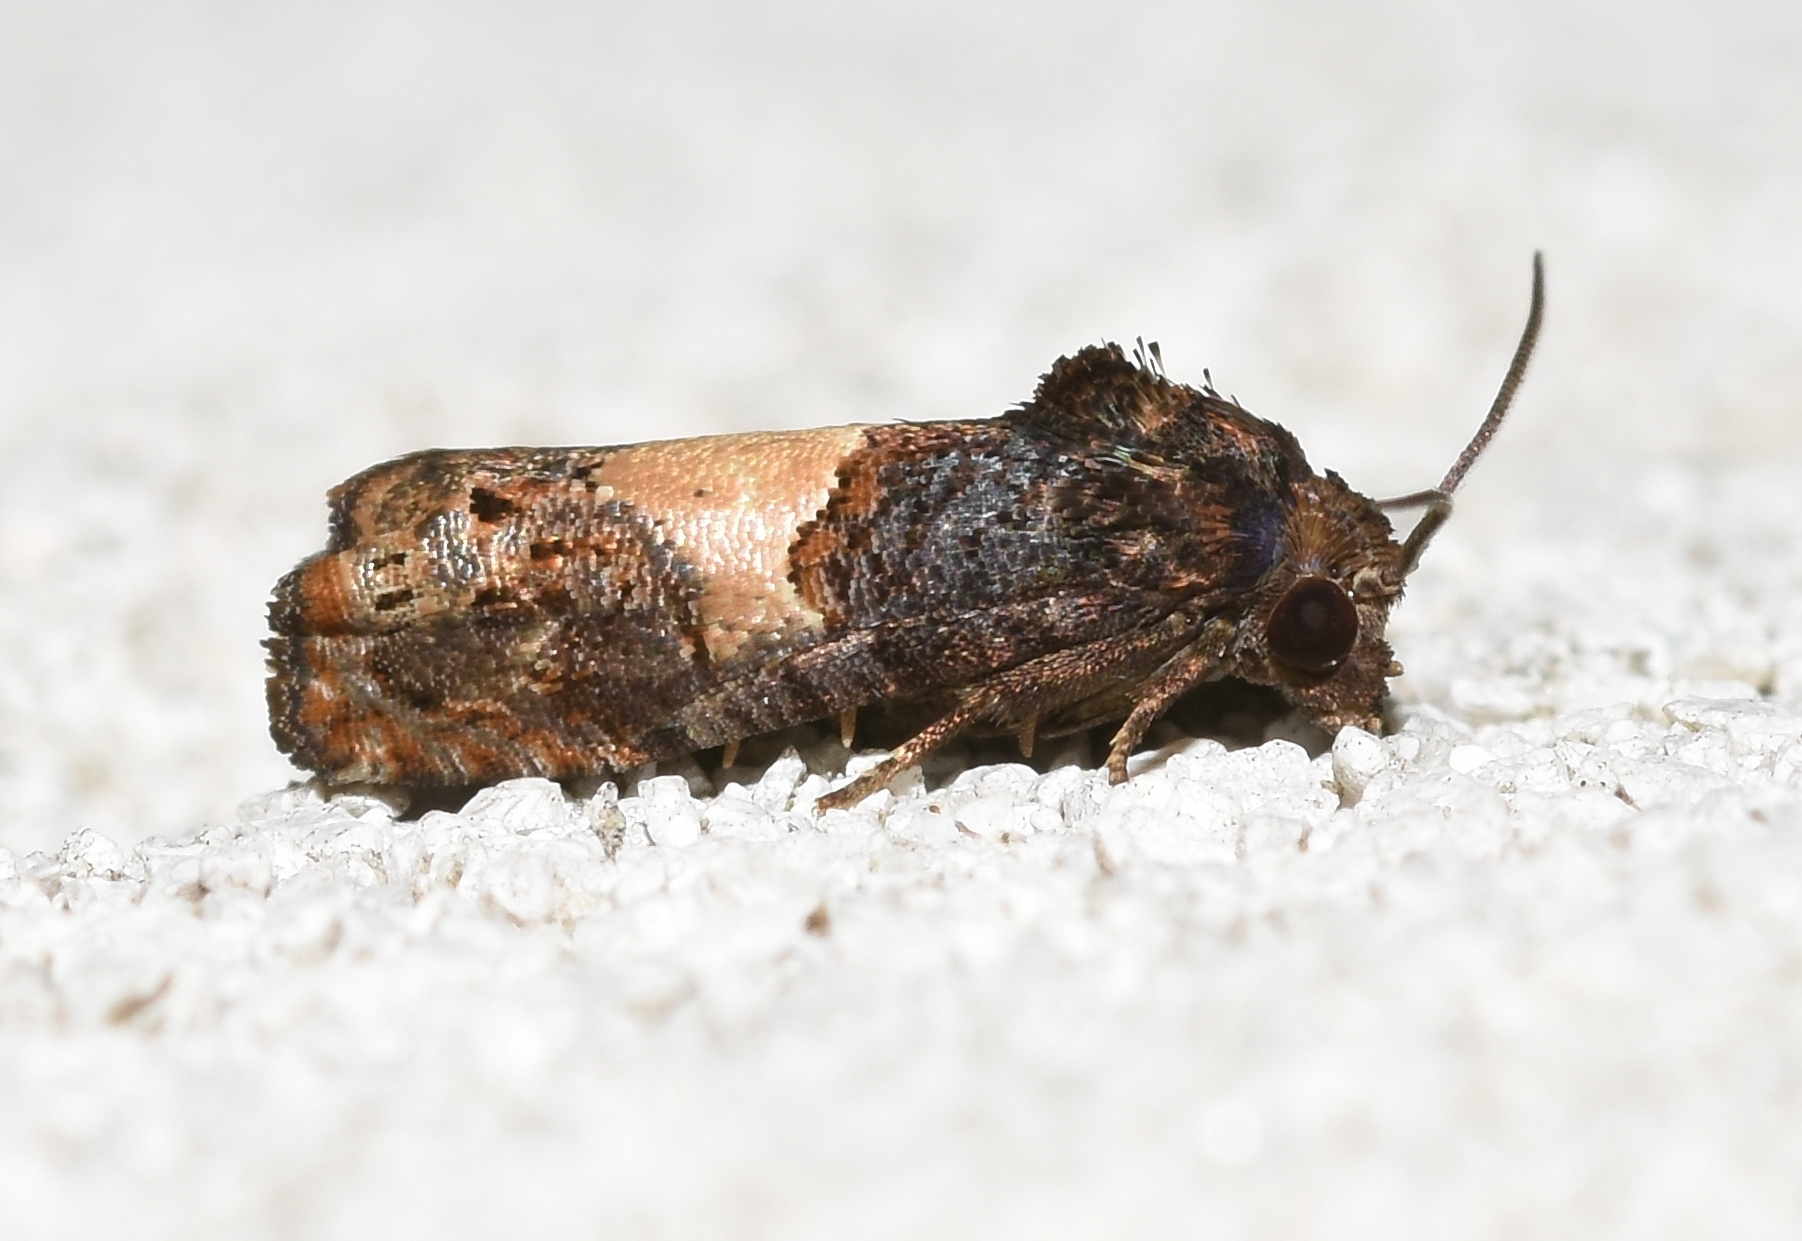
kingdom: Animalia
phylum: Arthropoda
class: Insecta
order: Lepidoptera
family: Tortricidae
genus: Epiblema
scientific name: Epiblema glenni
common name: Glenn's epiblema
